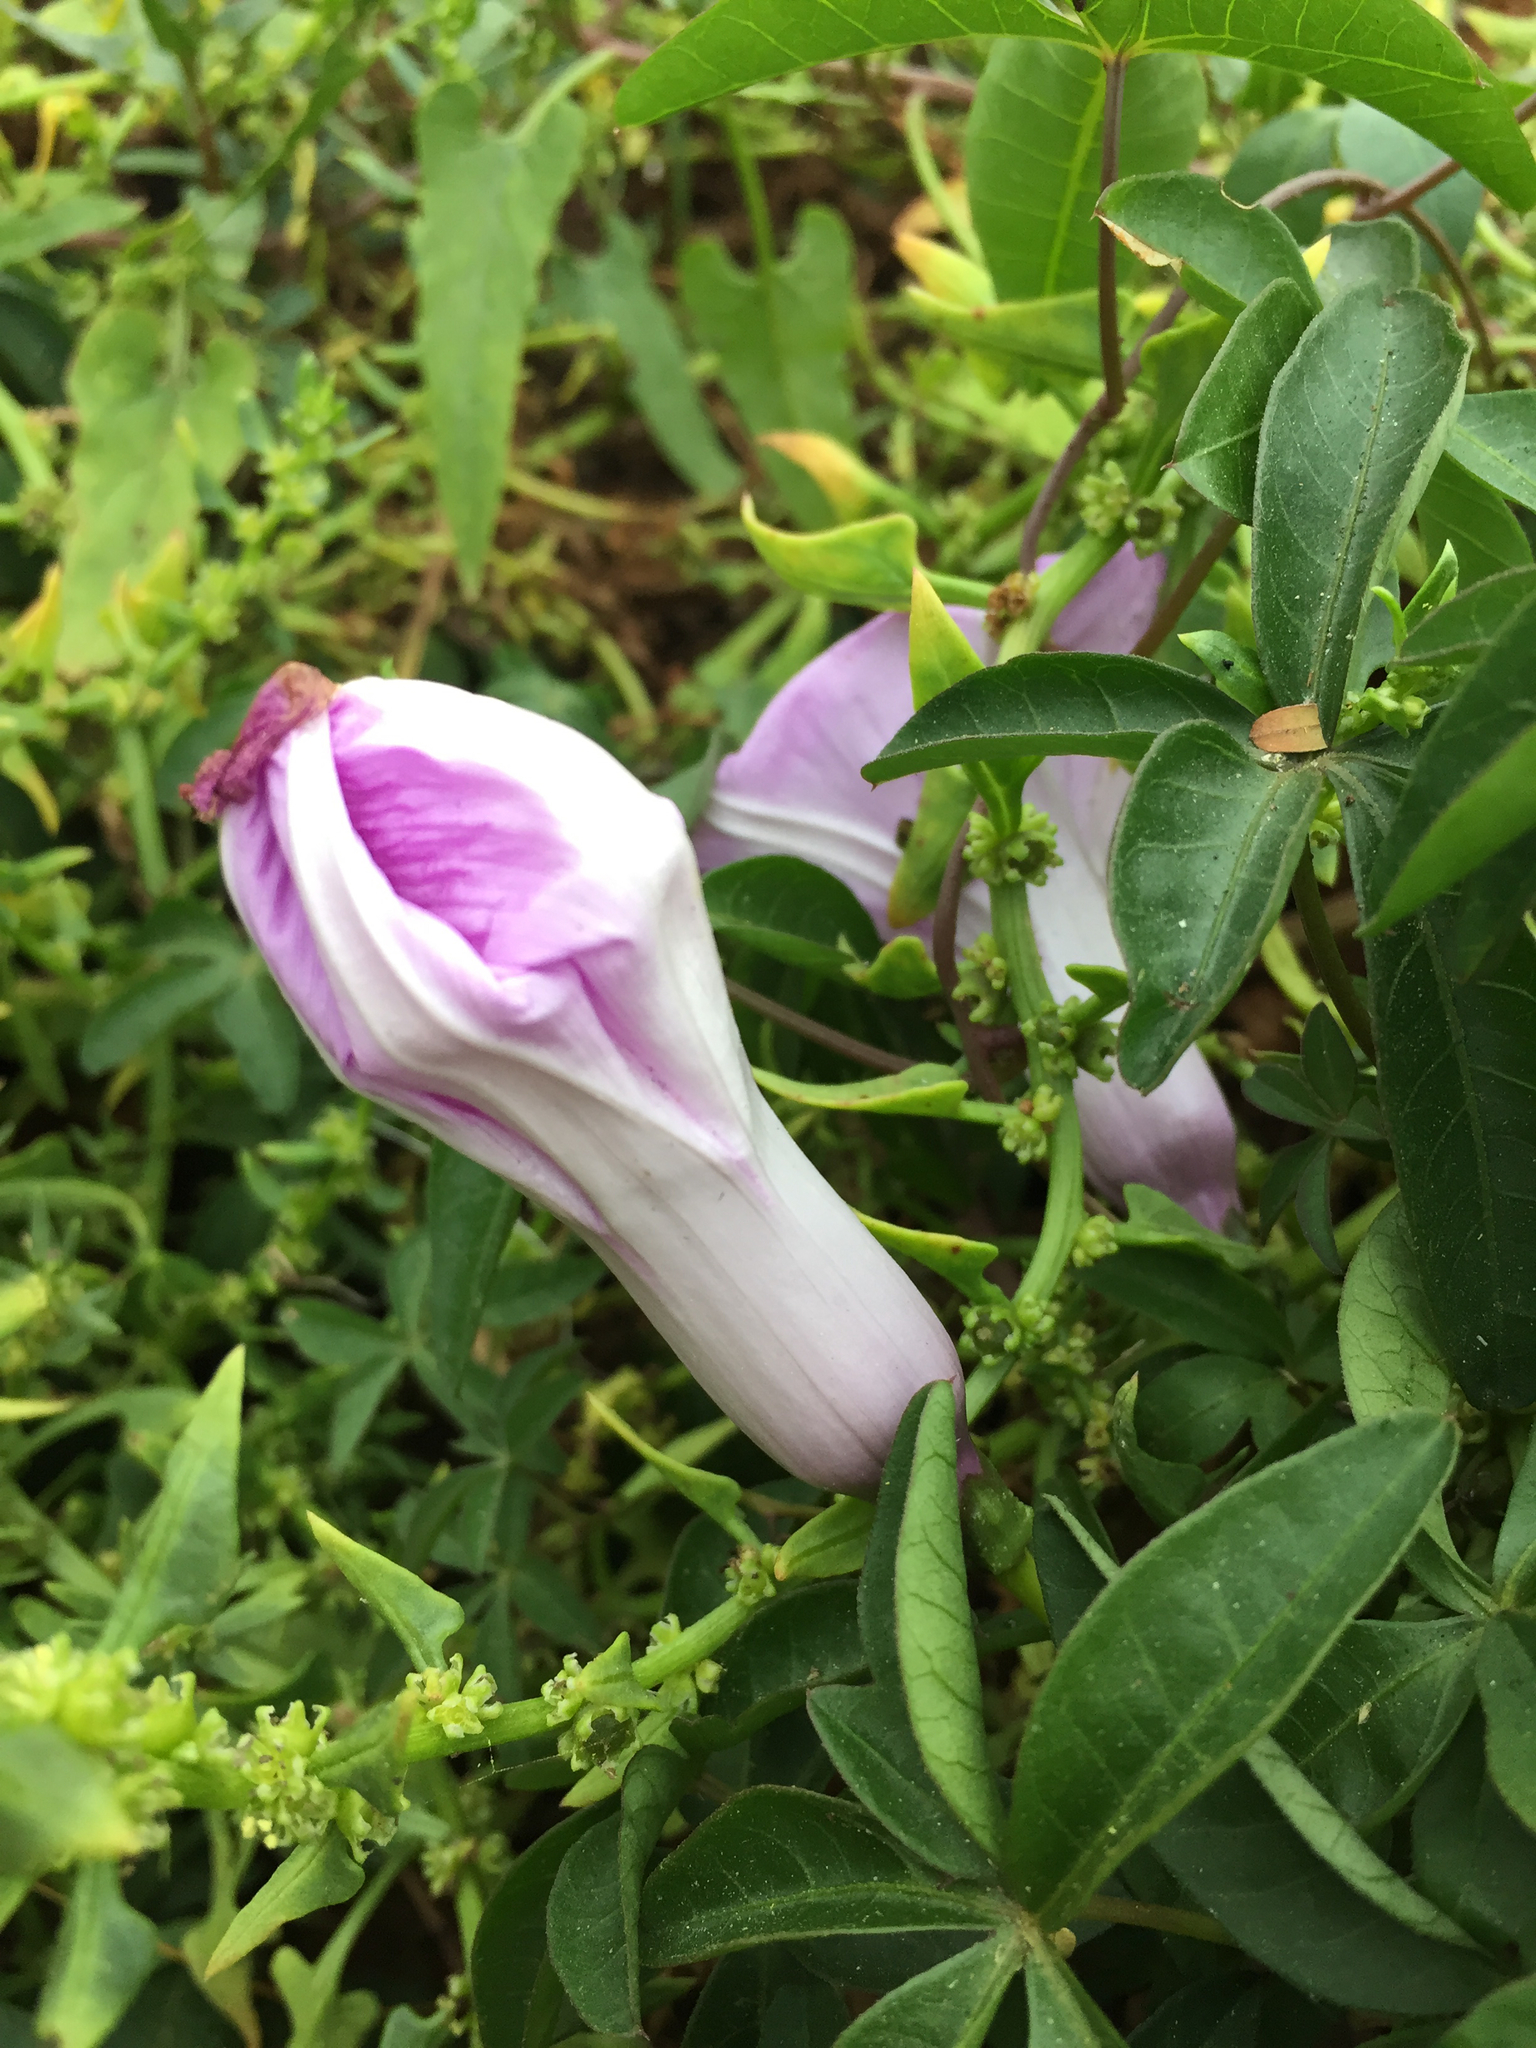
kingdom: Plantae
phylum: Tracheophyta
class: Magnoliopsida
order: Solanales
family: Convolvulaceae
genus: Ipomoea
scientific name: Ipomoea cairica
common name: Mile a minute vine
